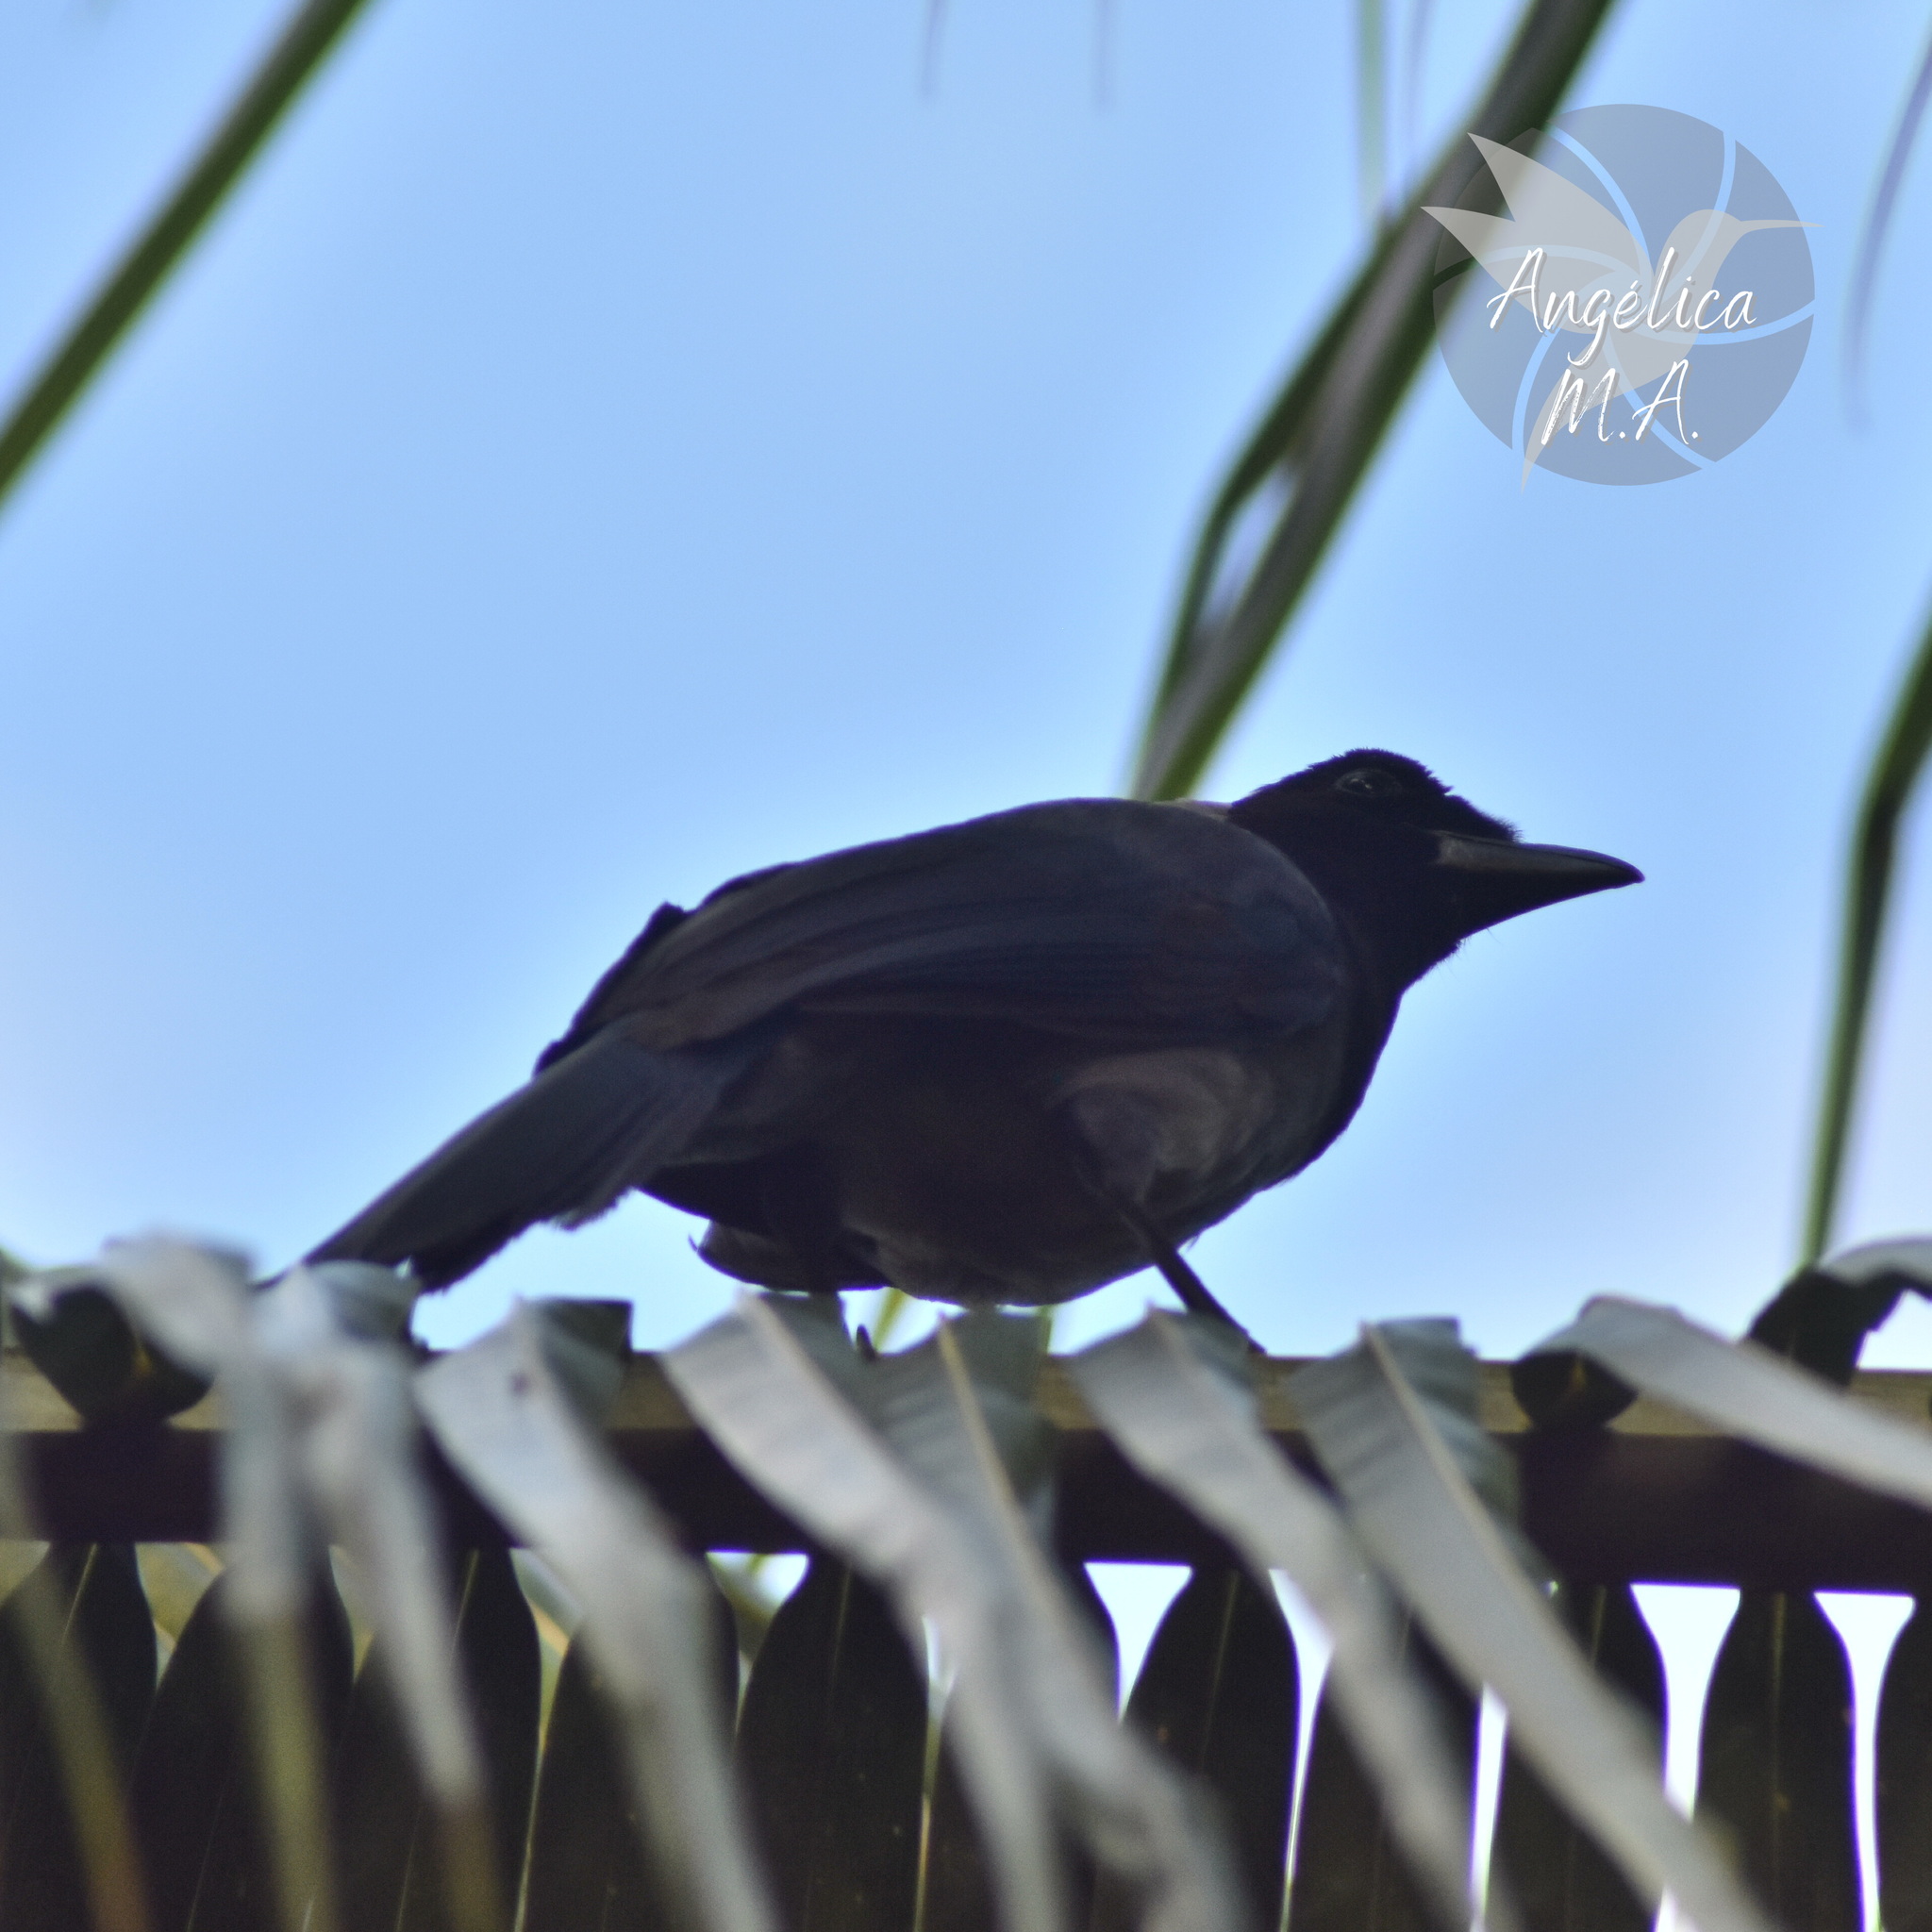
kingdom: Animalia
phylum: Chordata
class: Aves
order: Passeriformes
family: Corvidae
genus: Cyanocorax
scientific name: Cyanocorax violaceus
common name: Violaceous jay
